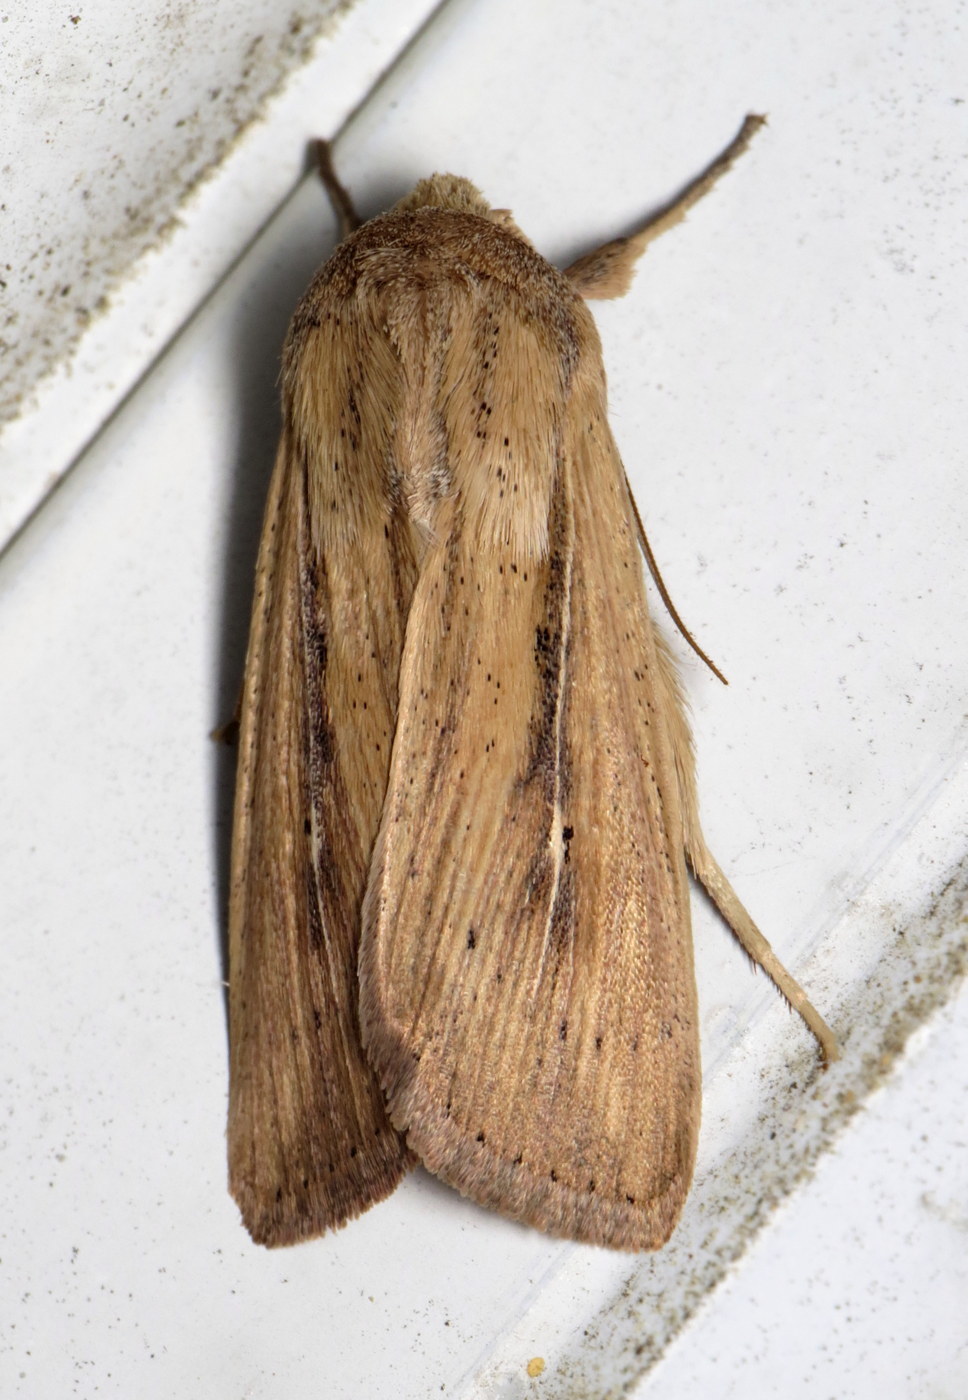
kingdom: Animalia
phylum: Arthropoda
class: Insecta
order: Lepidoptera
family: Noctuidae
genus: Leucania
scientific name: Leucania phragmitidicola
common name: Phragmites wainscot
